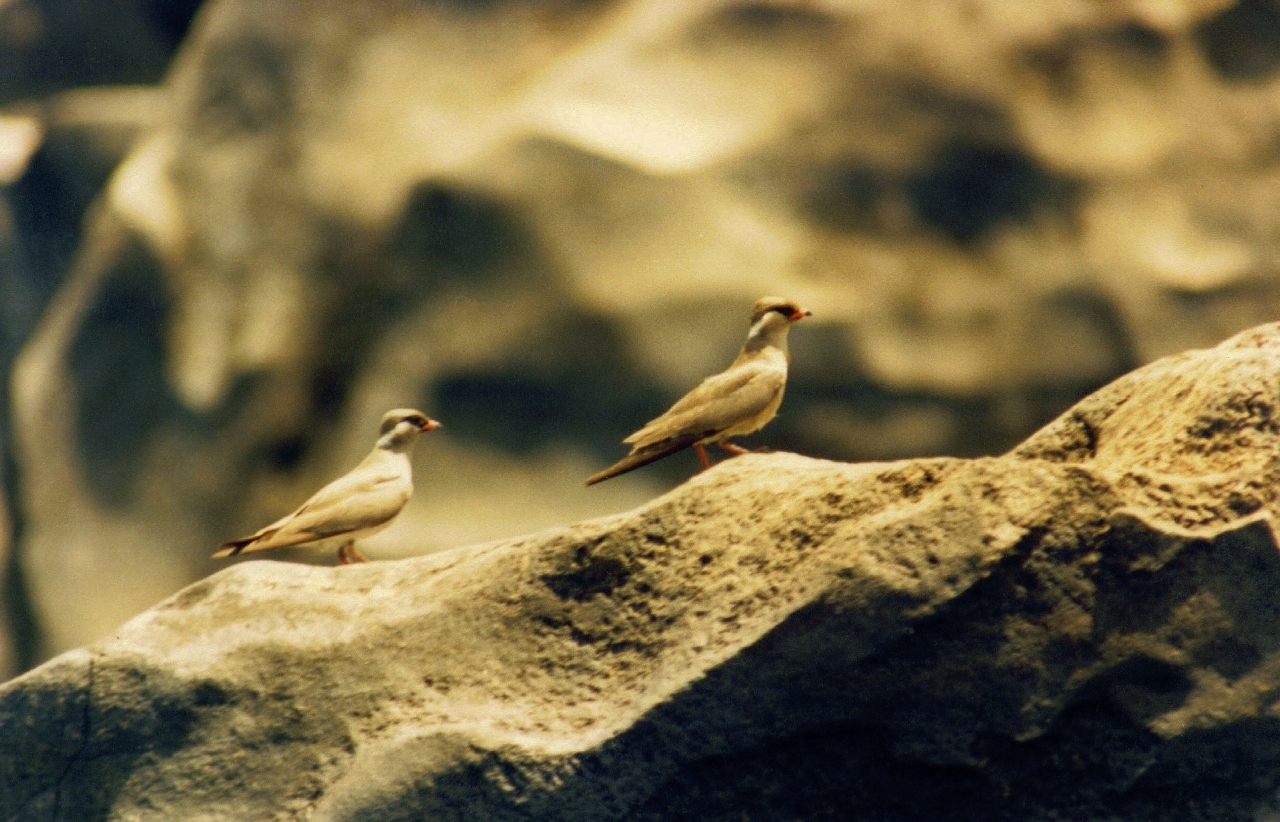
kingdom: Animalia
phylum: Chordata
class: Aves
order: Charadriiformes
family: Glareolidae
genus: Glareola
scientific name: Glareola nuchalis
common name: Rock pratincole
